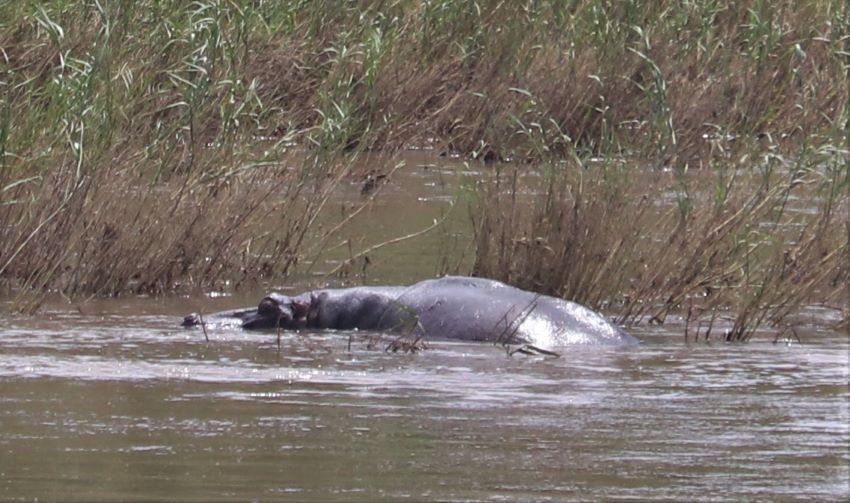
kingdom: Animalia
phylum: Chordata
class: Mammalia
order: Artiodactyla
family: Hippopotamidae
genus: Hippopotamus
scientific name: Hippopotamus amphibius
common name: Common hippopotamus
